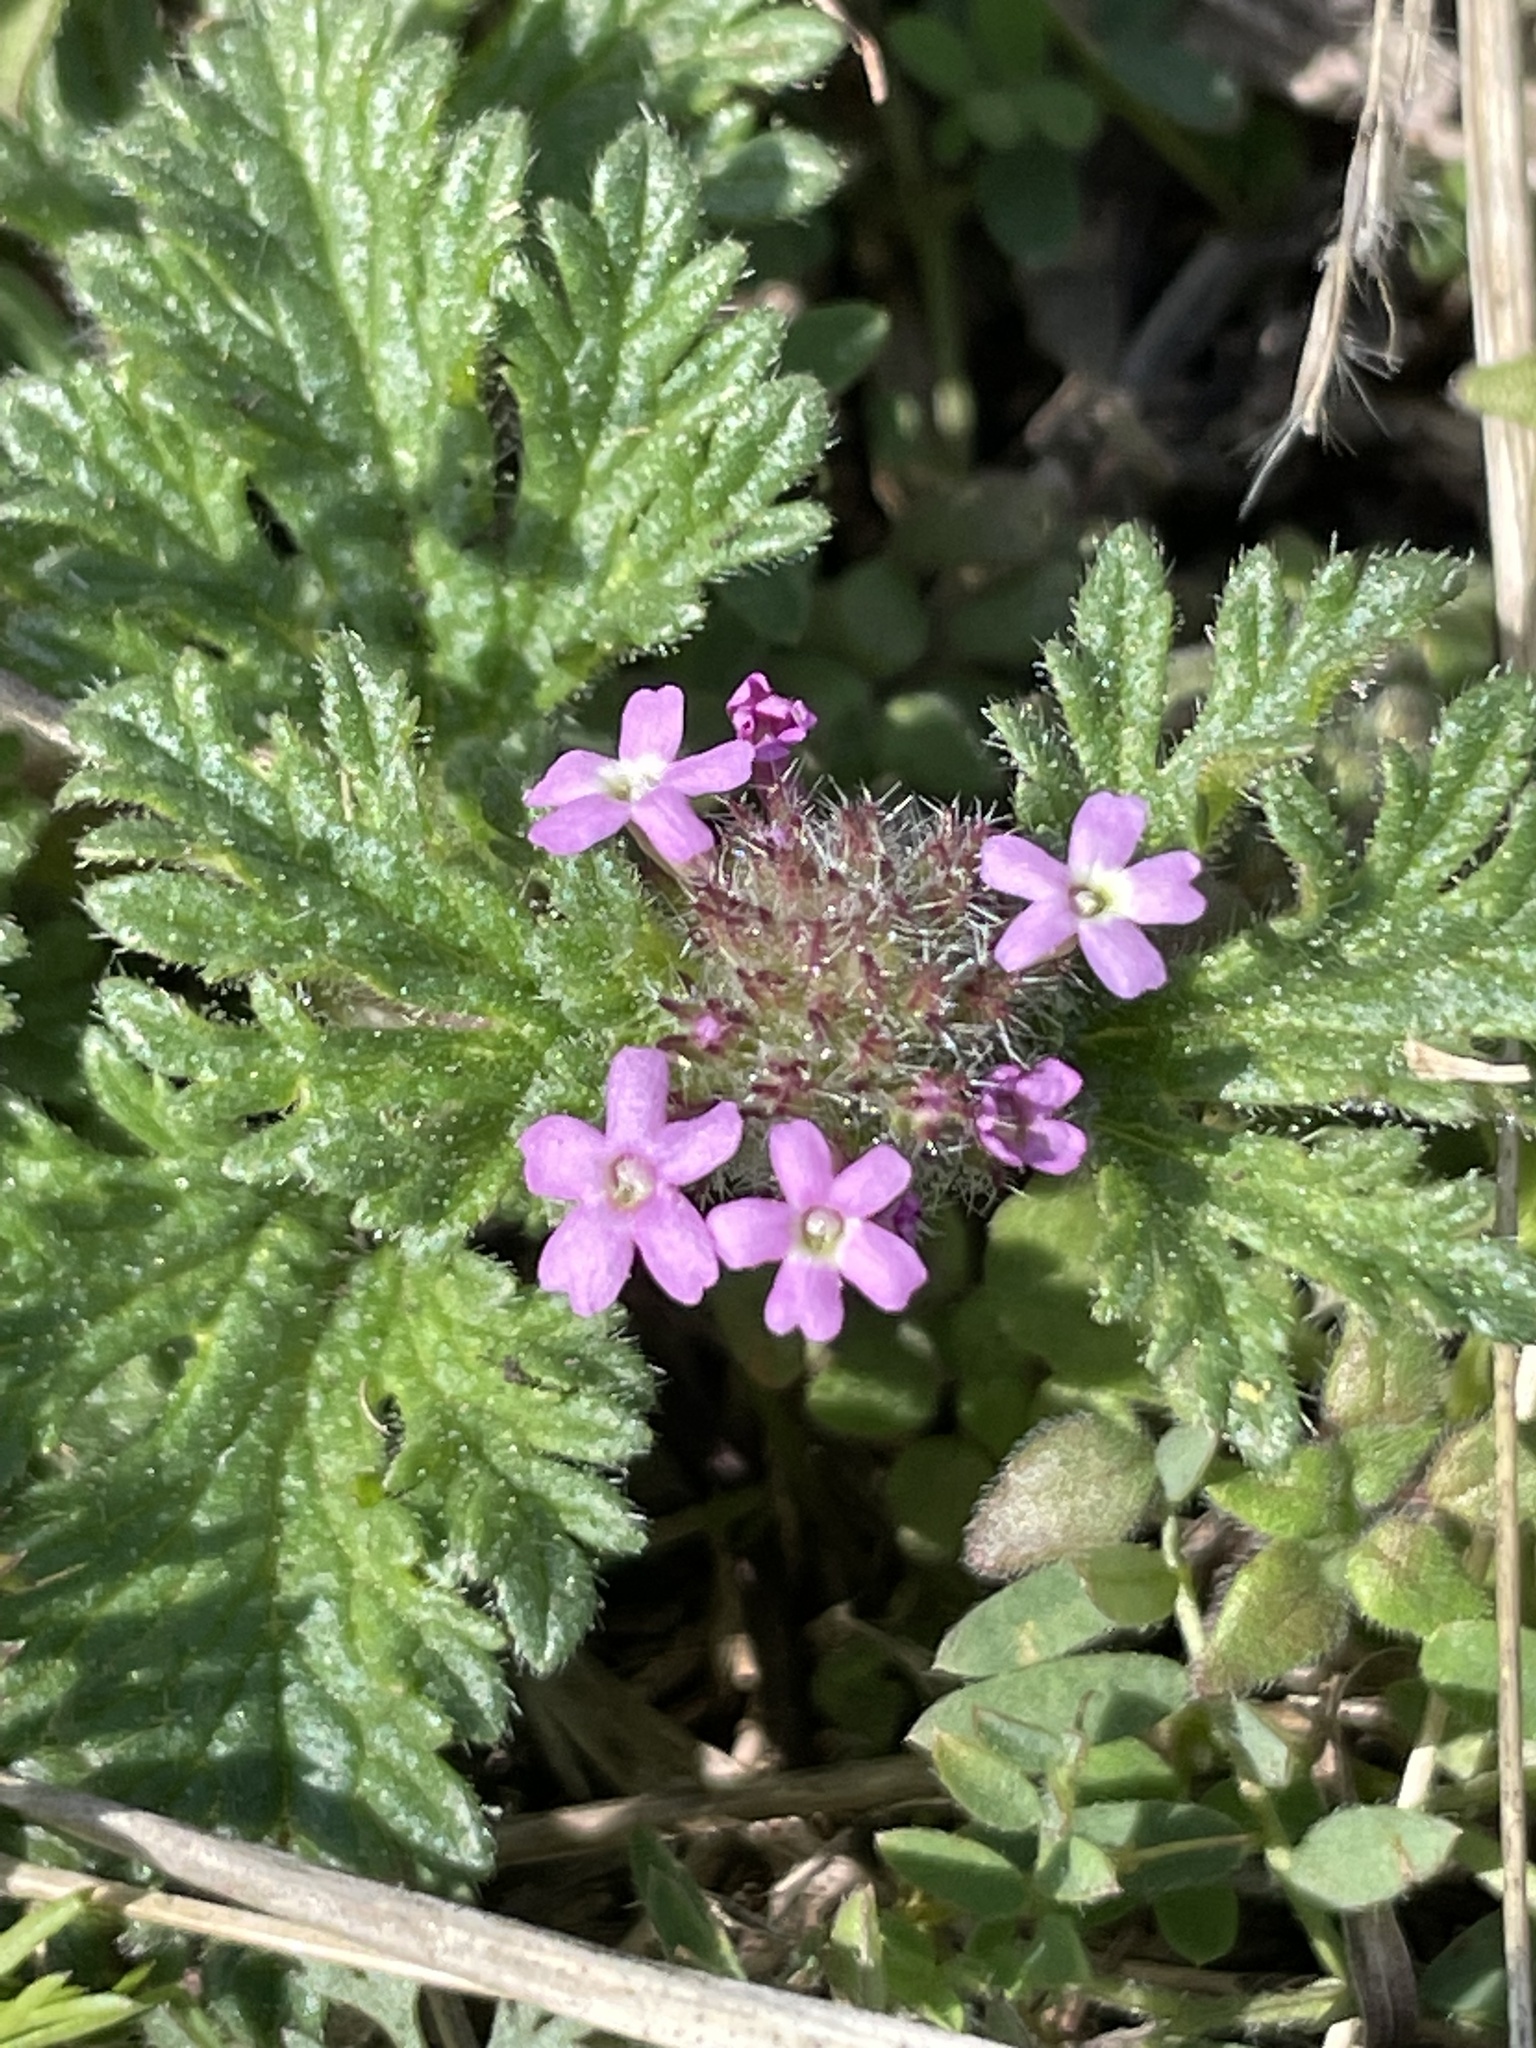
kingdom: Plantae
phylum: Tracheophyta
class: Magnoliopsida
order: Lamiales
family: Verbenaceae
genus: Verbena
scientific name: Verbena pumila
